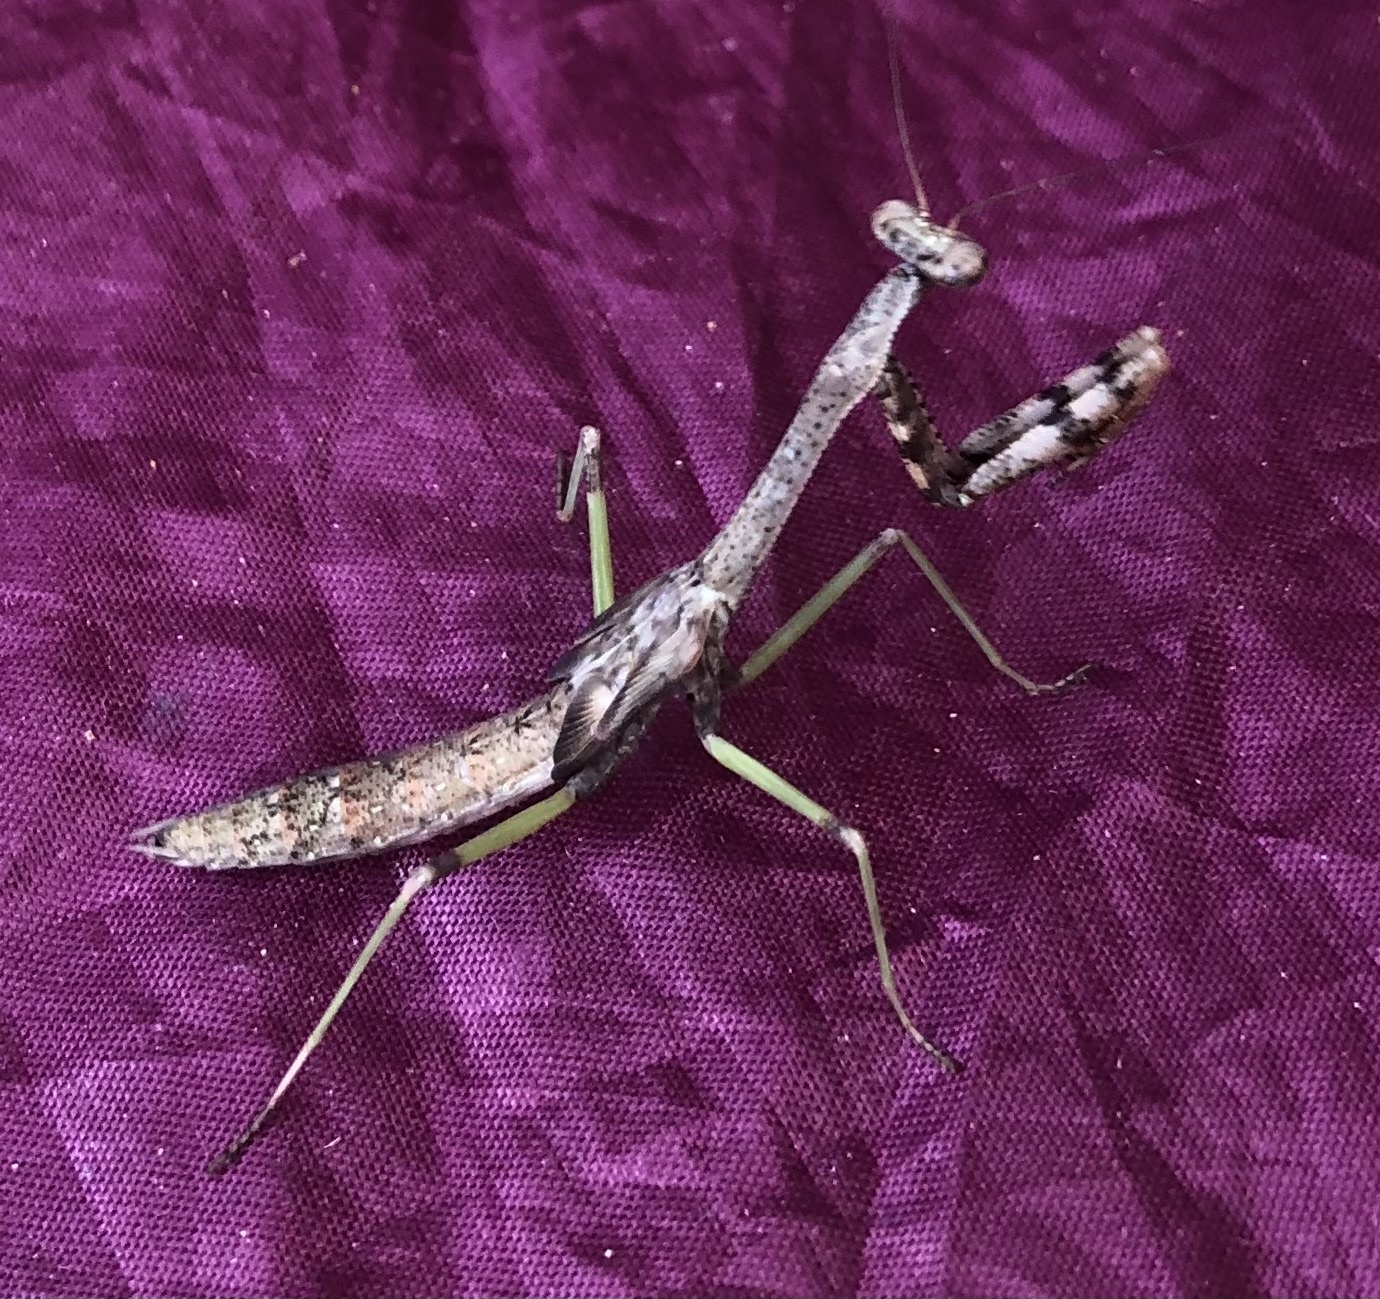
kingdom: Animalia
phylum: Arthropoda
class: Insecta
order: Mantodea
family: Mantidae
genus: Stagmomantis
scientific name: Stagmomantis carolina
